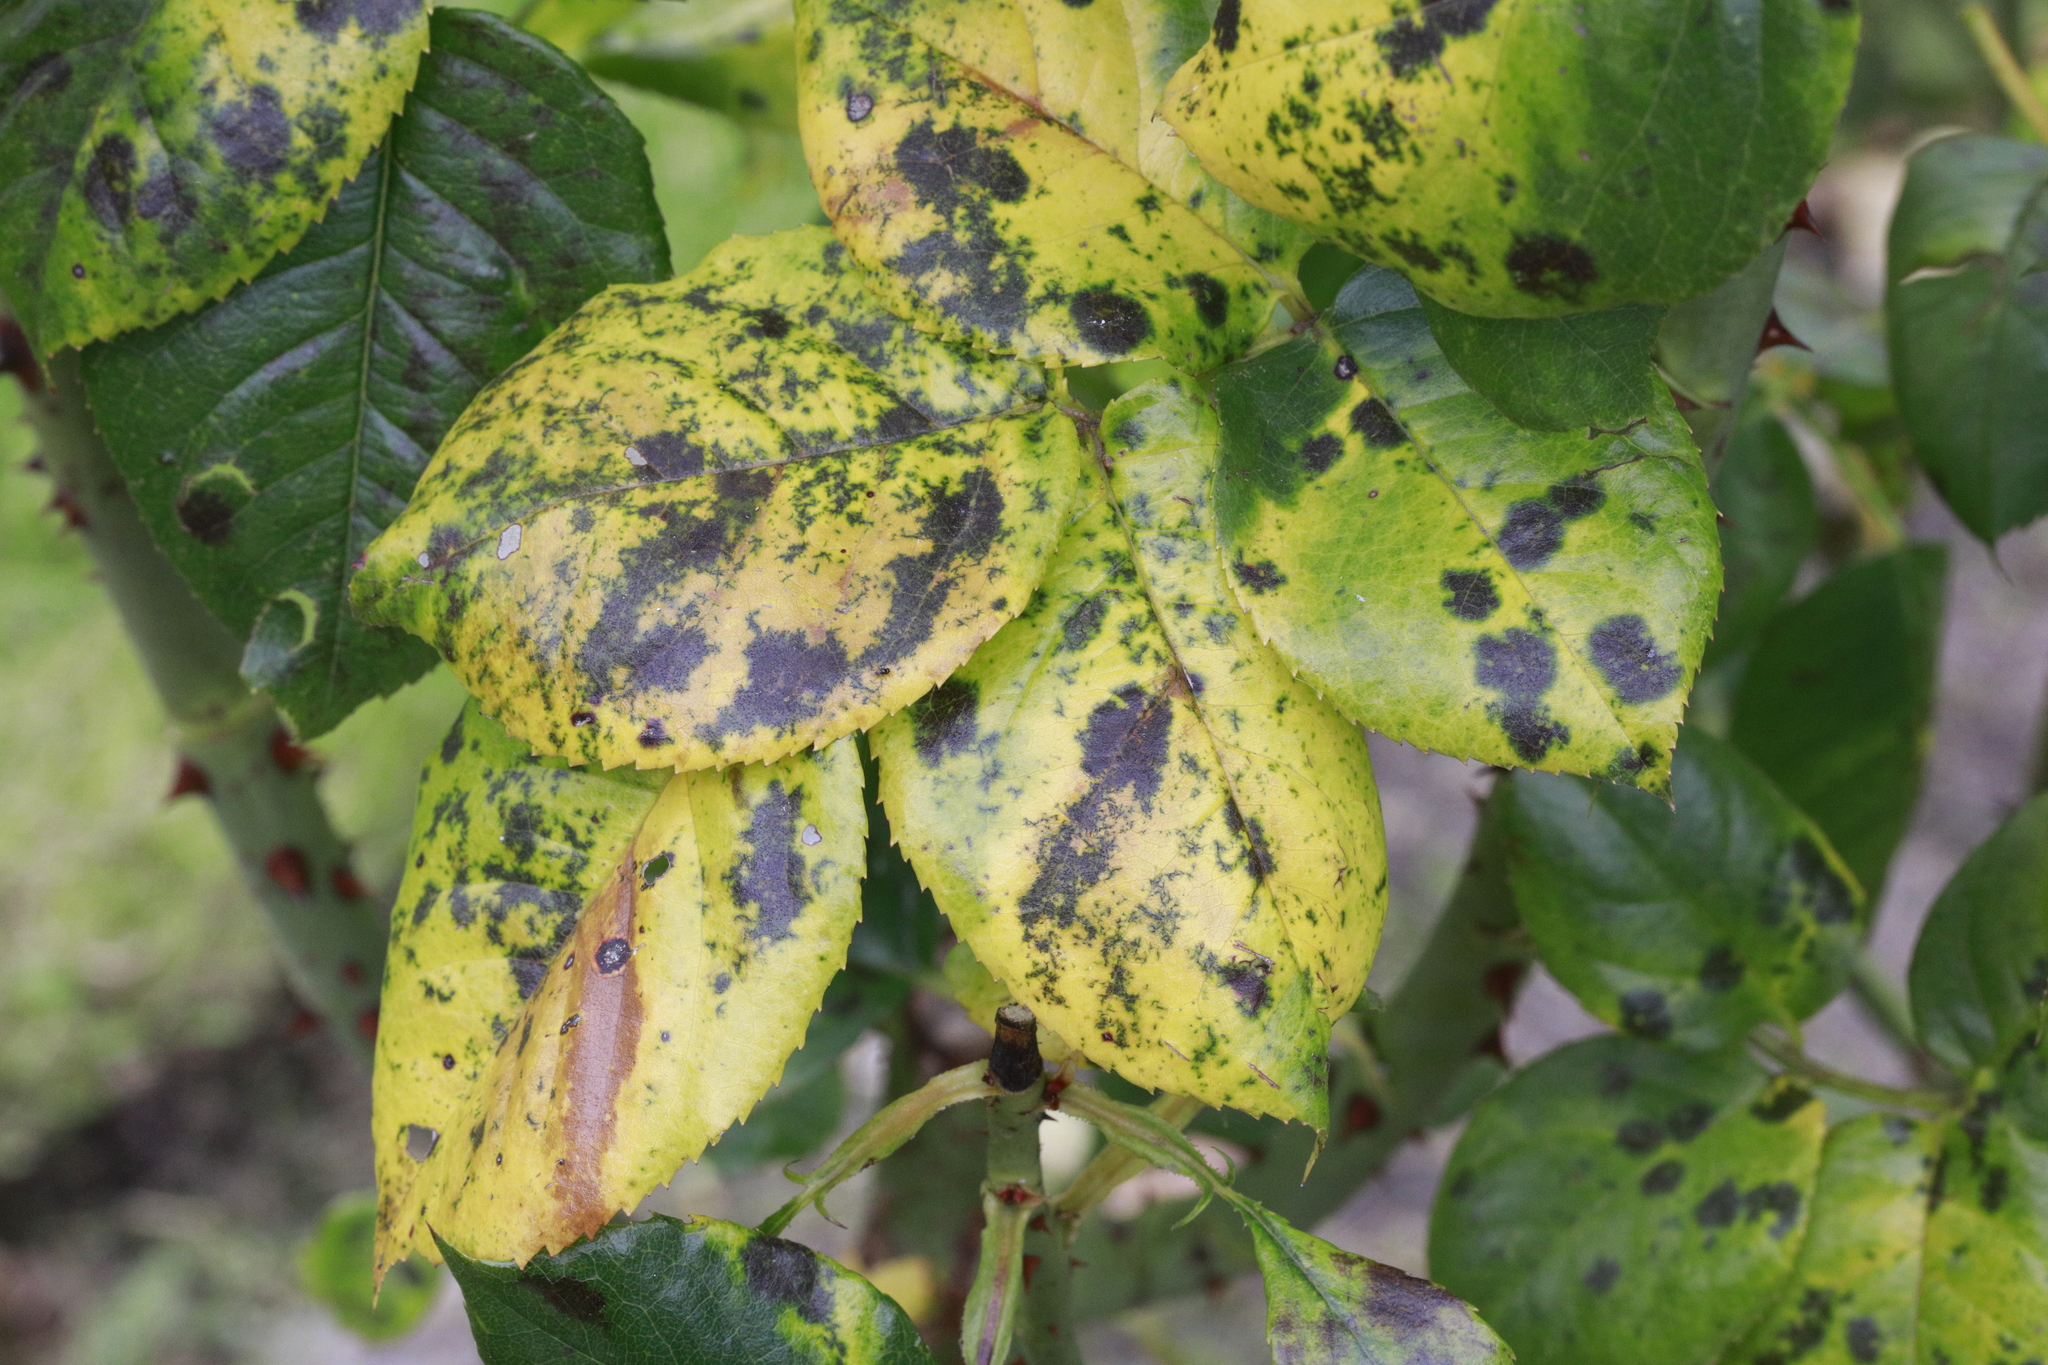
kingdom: Fungi
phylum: Ascomycota
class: Leotiomycetes
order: Helotiales
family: Drepanopezizaceae
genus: Diplocarpon
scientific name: Diplocarpon rosae
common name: Rose black-spot
